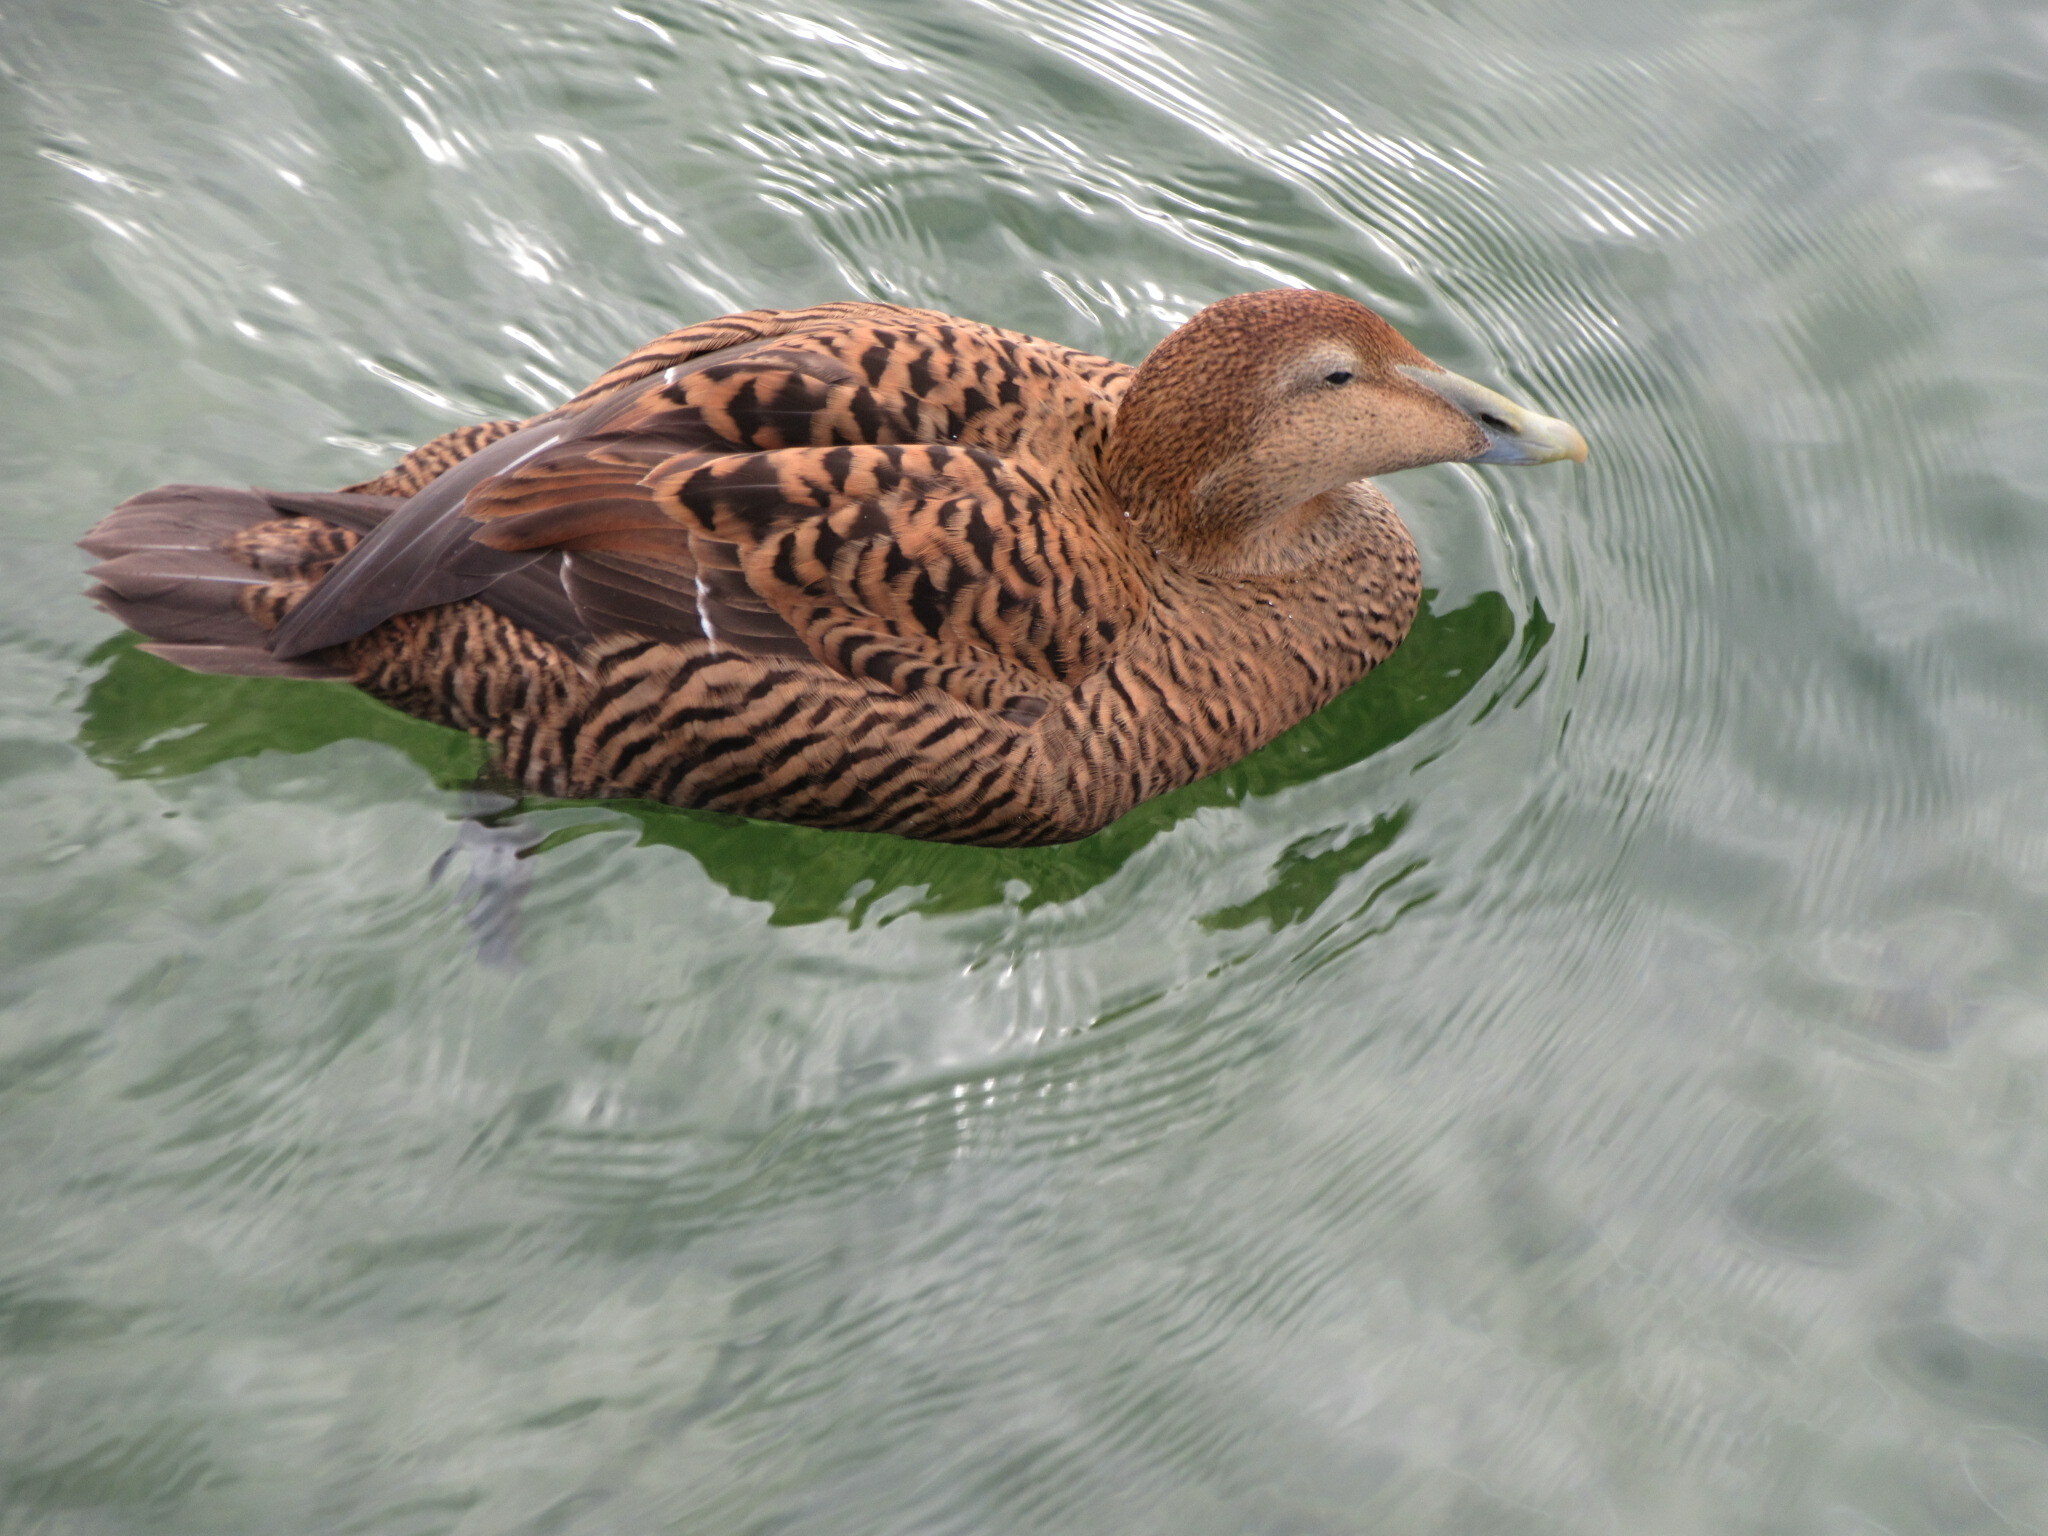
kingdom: Animalia
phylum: Chordata
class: Aves
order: Anseriformes
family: Anatidae
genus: Somateria
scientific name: Somateria mollissima
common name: Common eider
